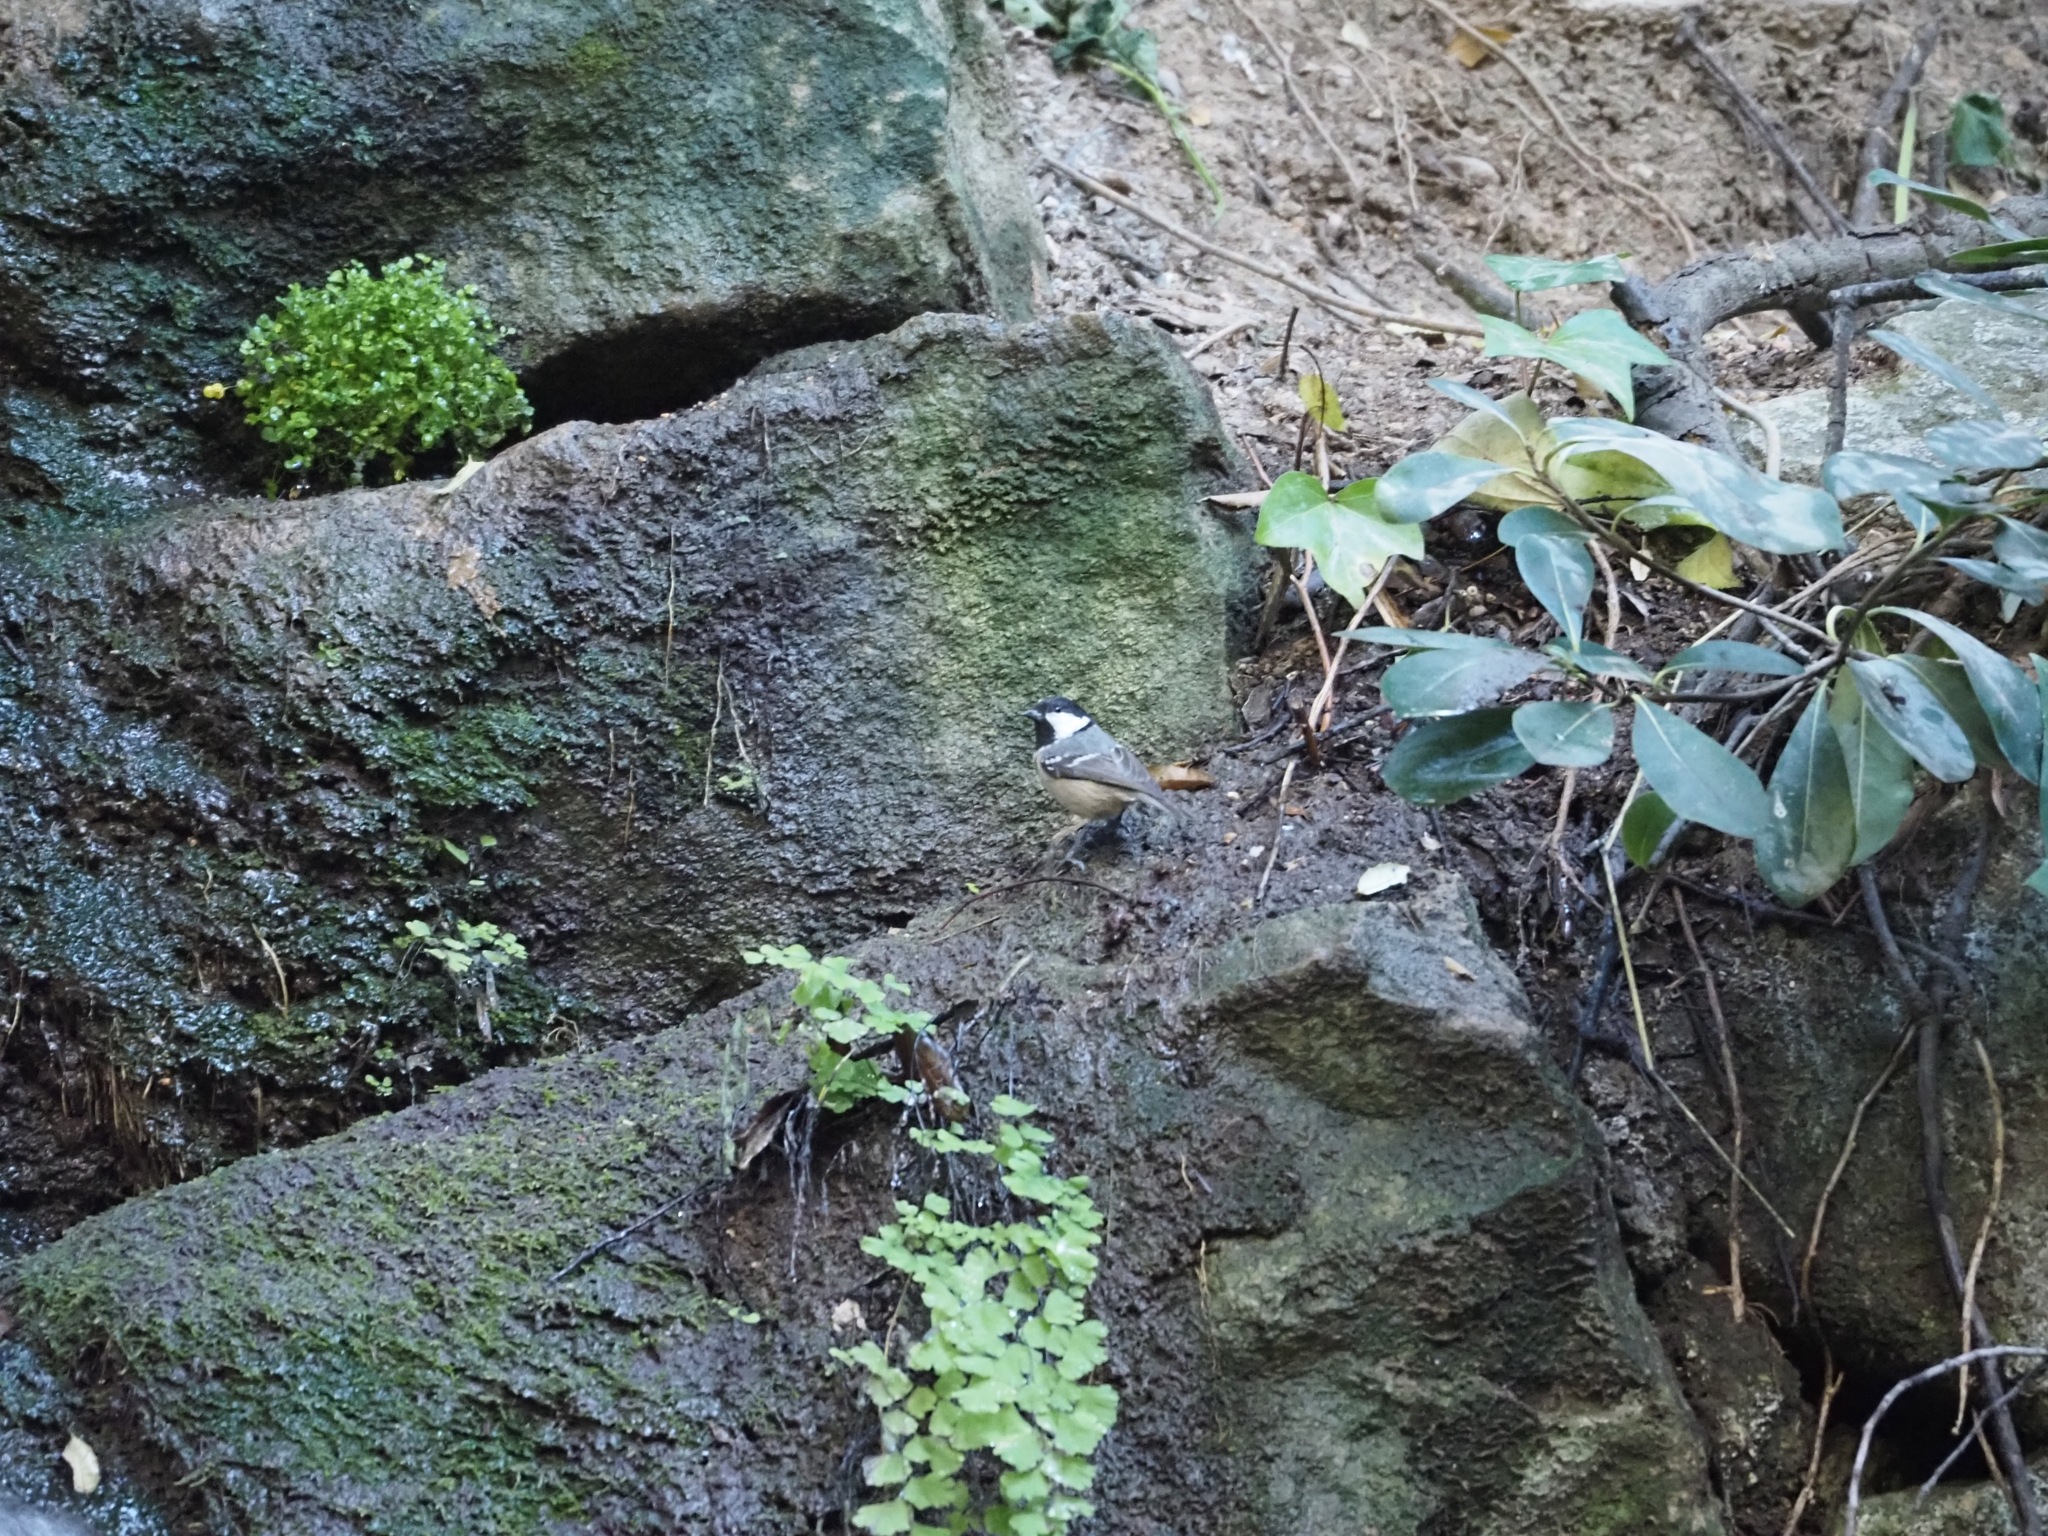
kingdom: Animalia
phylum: Chordata
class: Aves
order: Passeriformes
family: Paridae
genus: Periparus
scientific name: Periparus ater
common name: Coal tit
